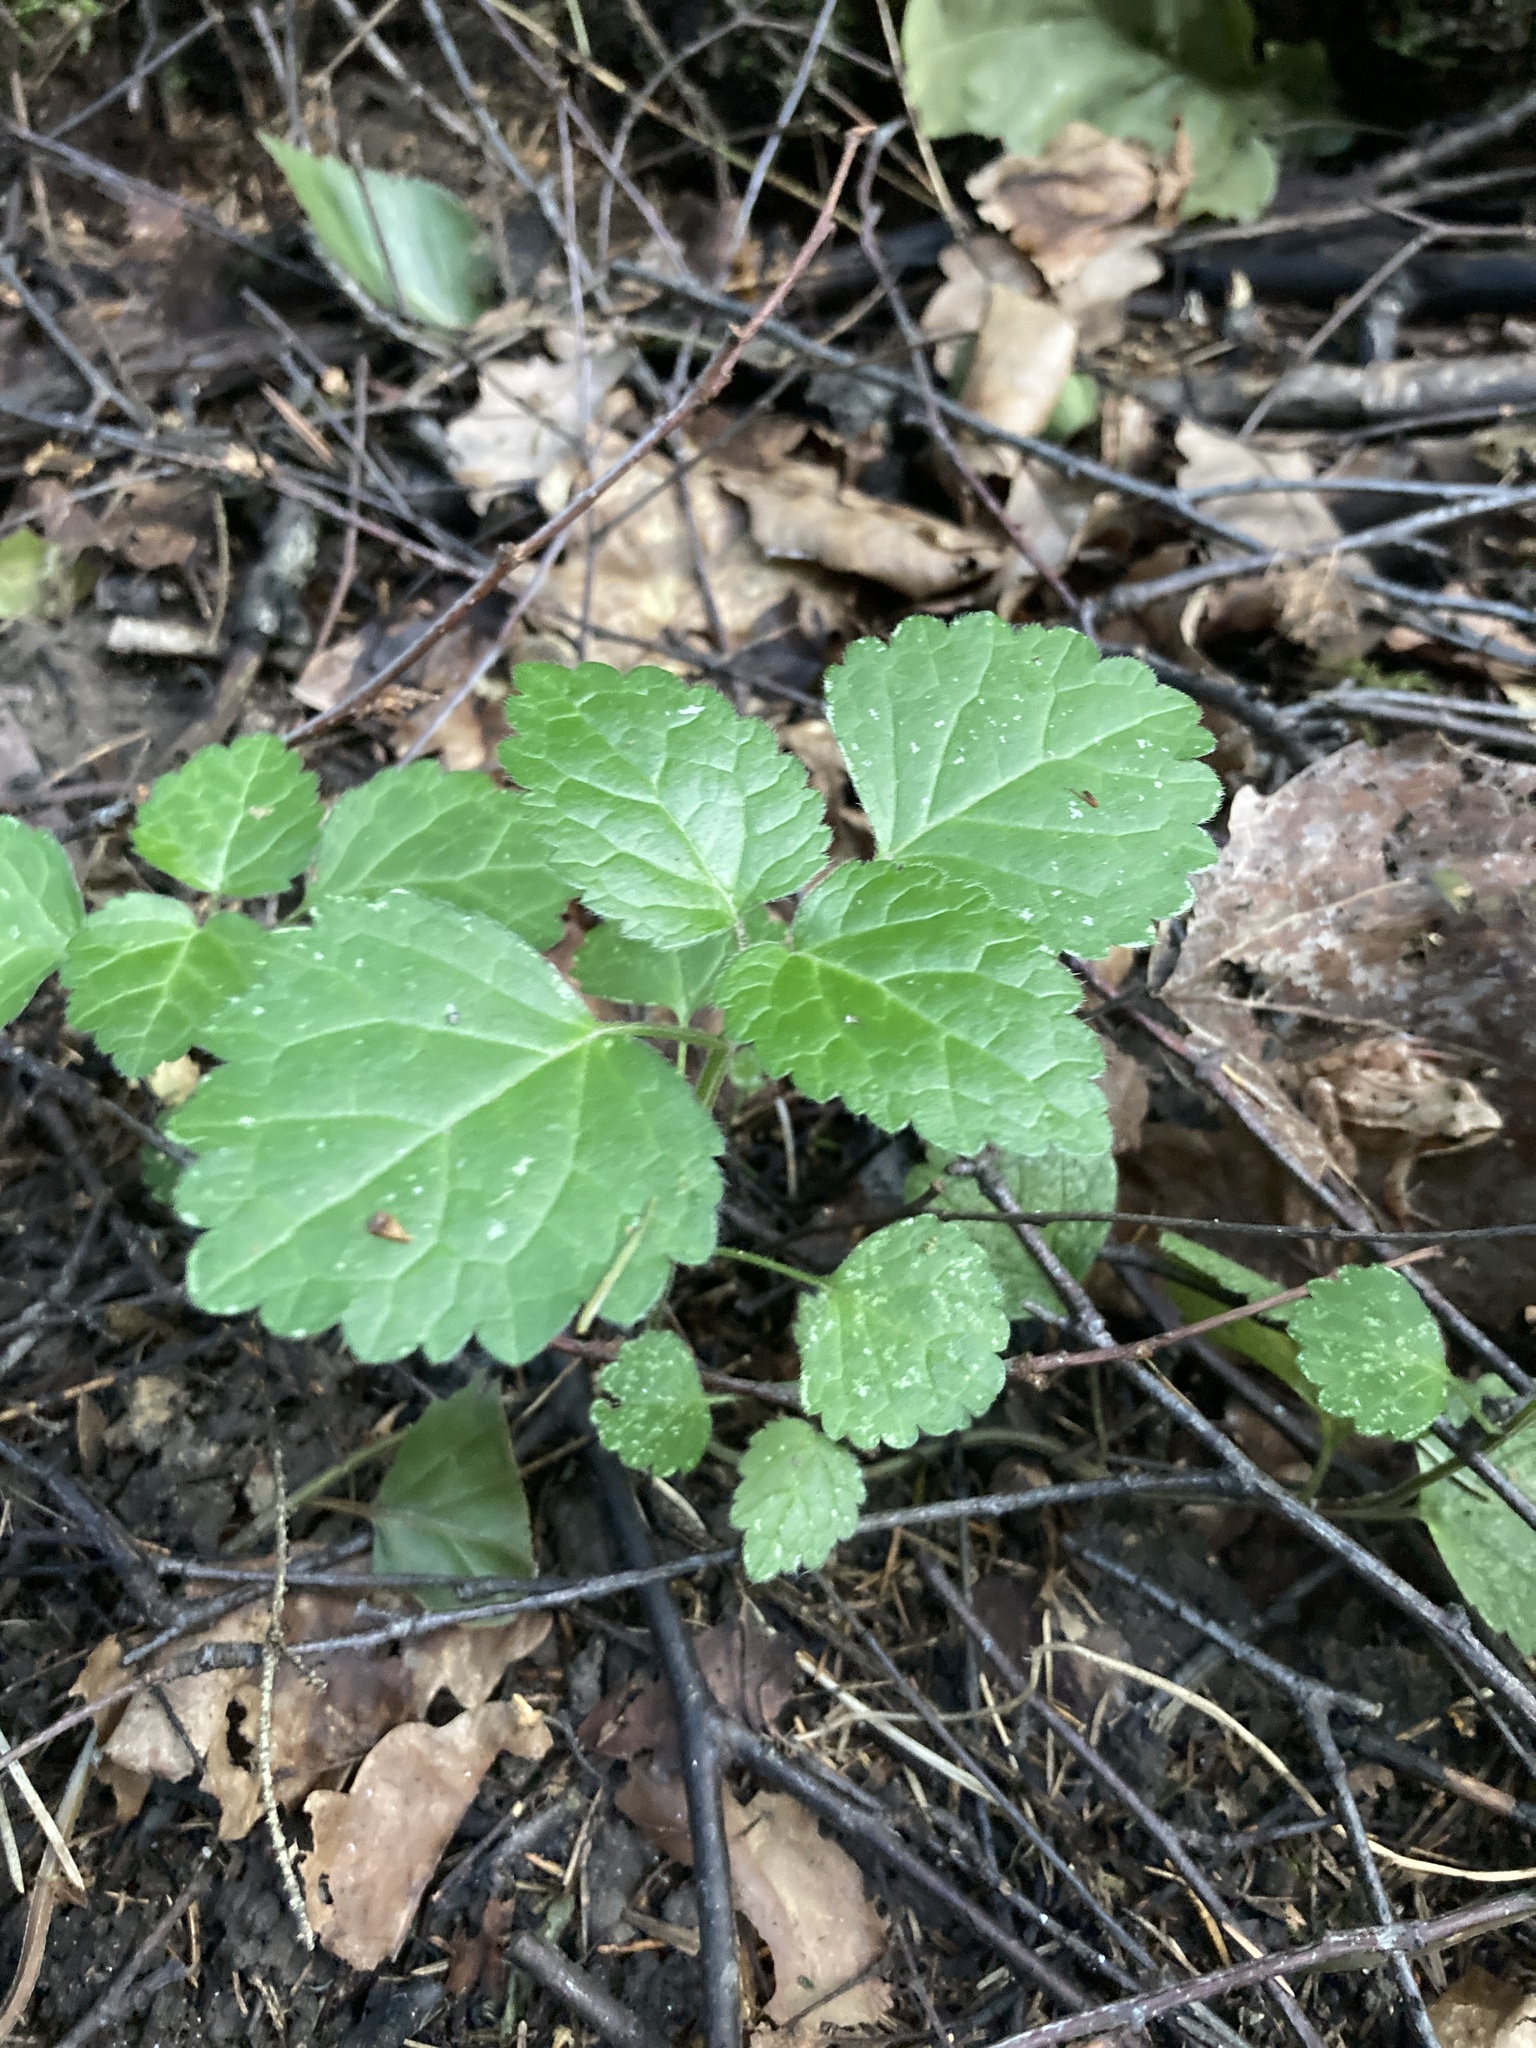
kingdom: Plantae
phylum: Tracheophyta
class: Magnoliopsida
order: Lamiales
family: Lamiaceae
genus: Lamium
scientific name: Lamium galeobdolon
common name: Yellow archangel
